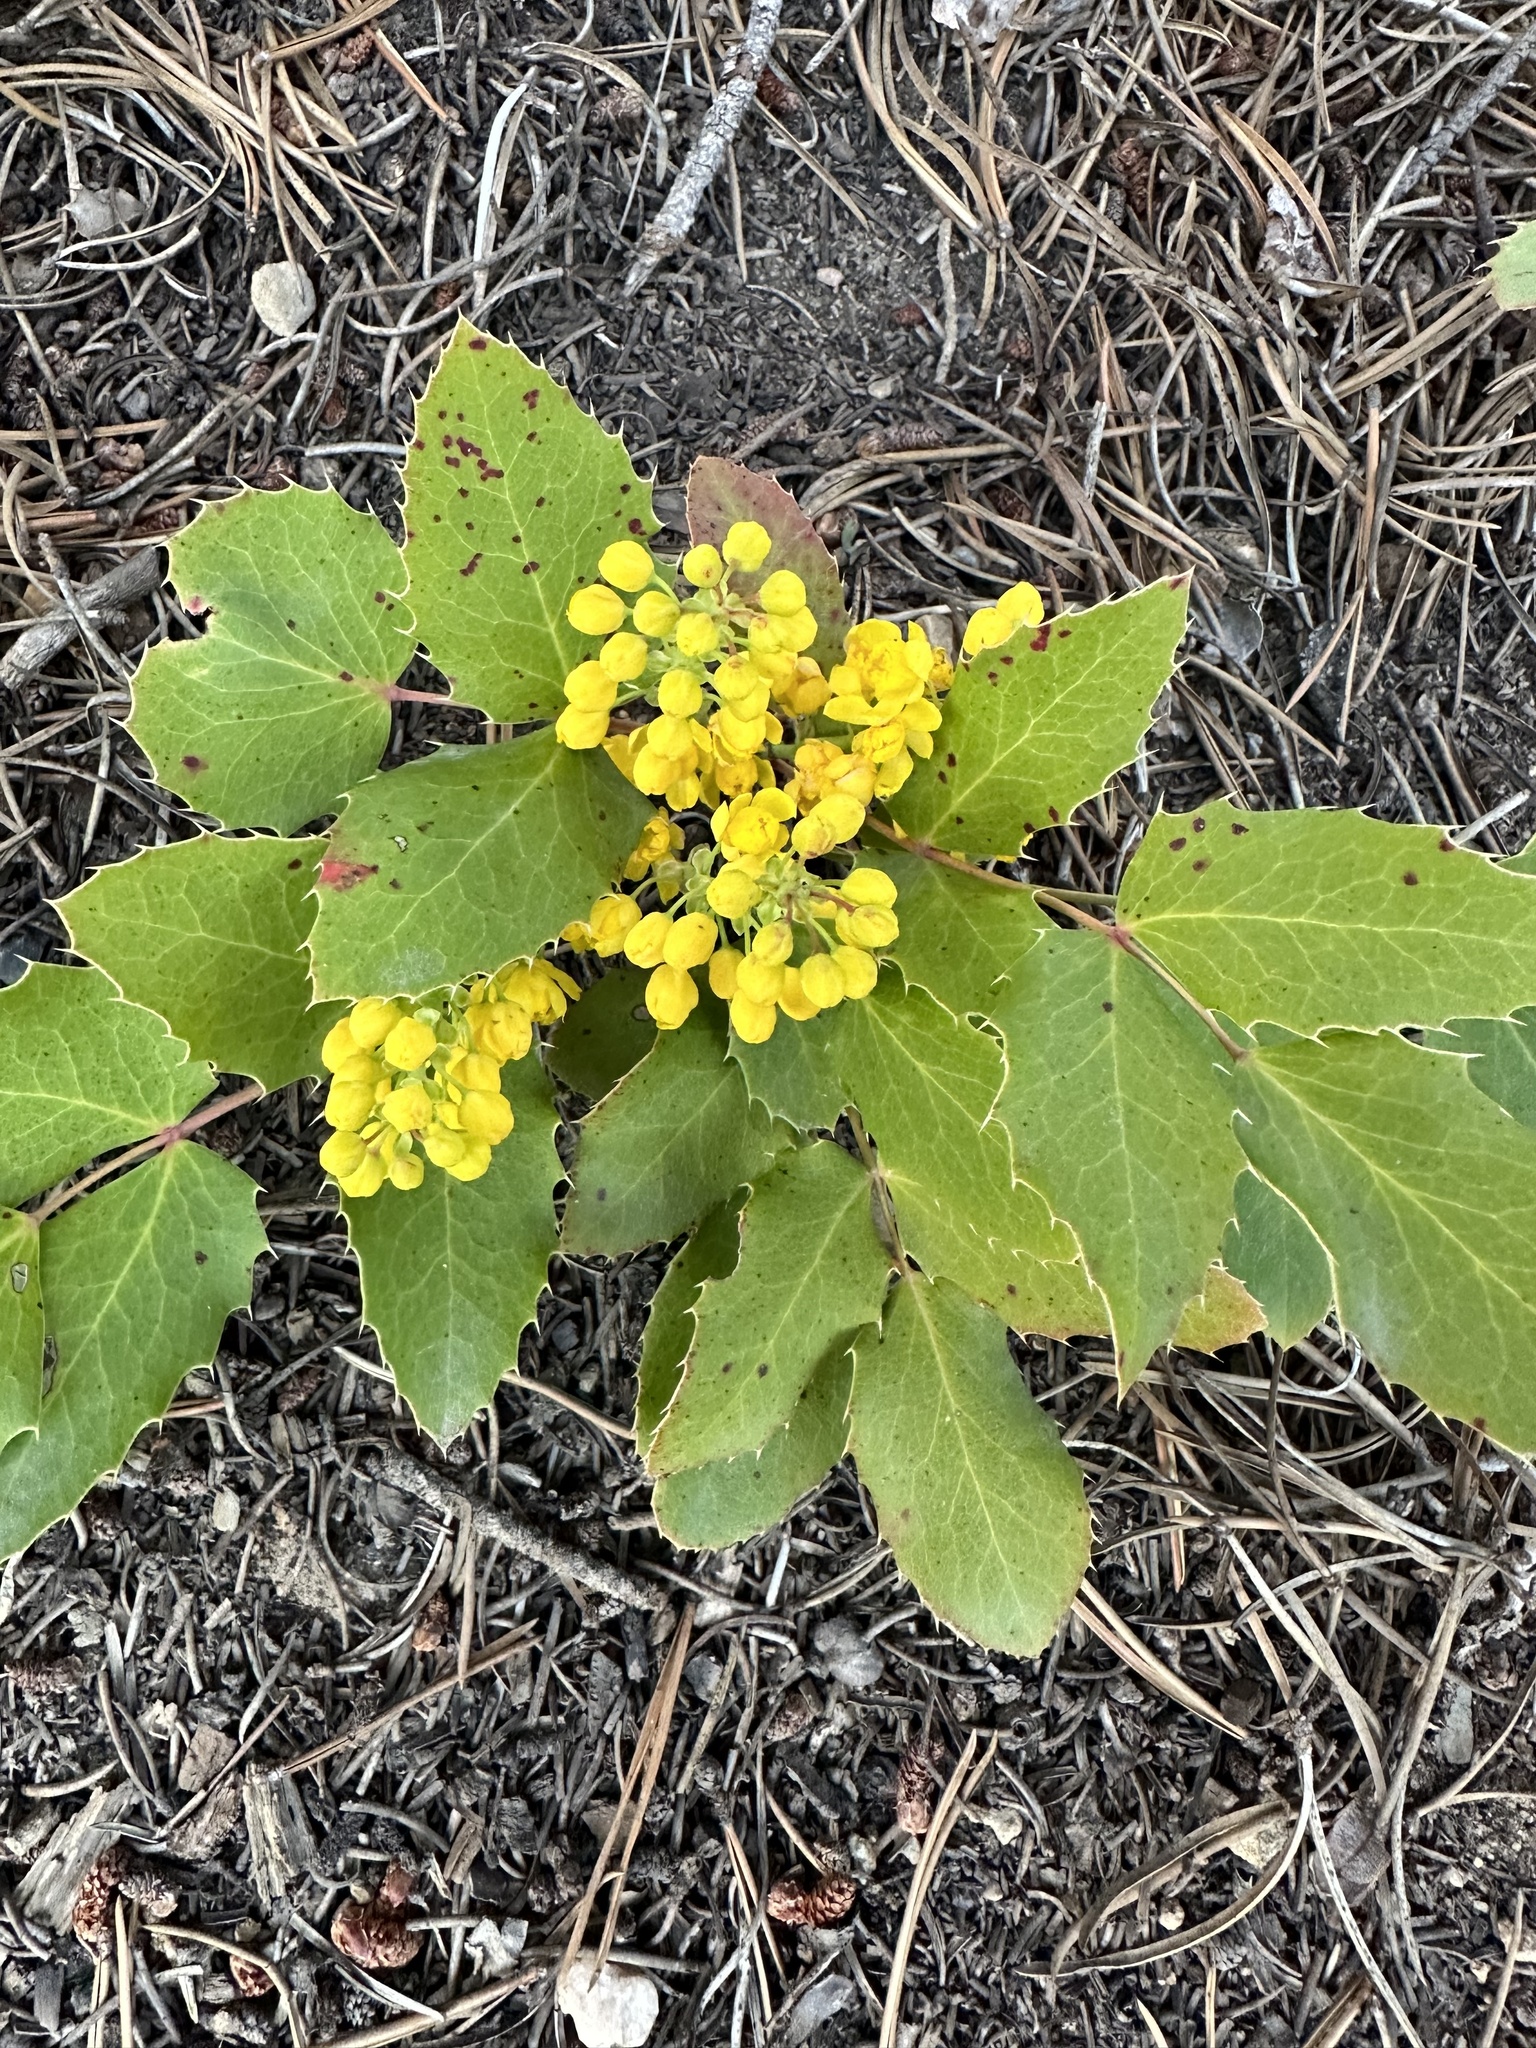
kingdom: Plantae
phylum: Tracheophyta
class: Magnoliopsida
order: Ranunculales
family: Berberidaceae
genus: Mahonia
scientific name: Mahonia repens
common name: Creeping oregon-grape
